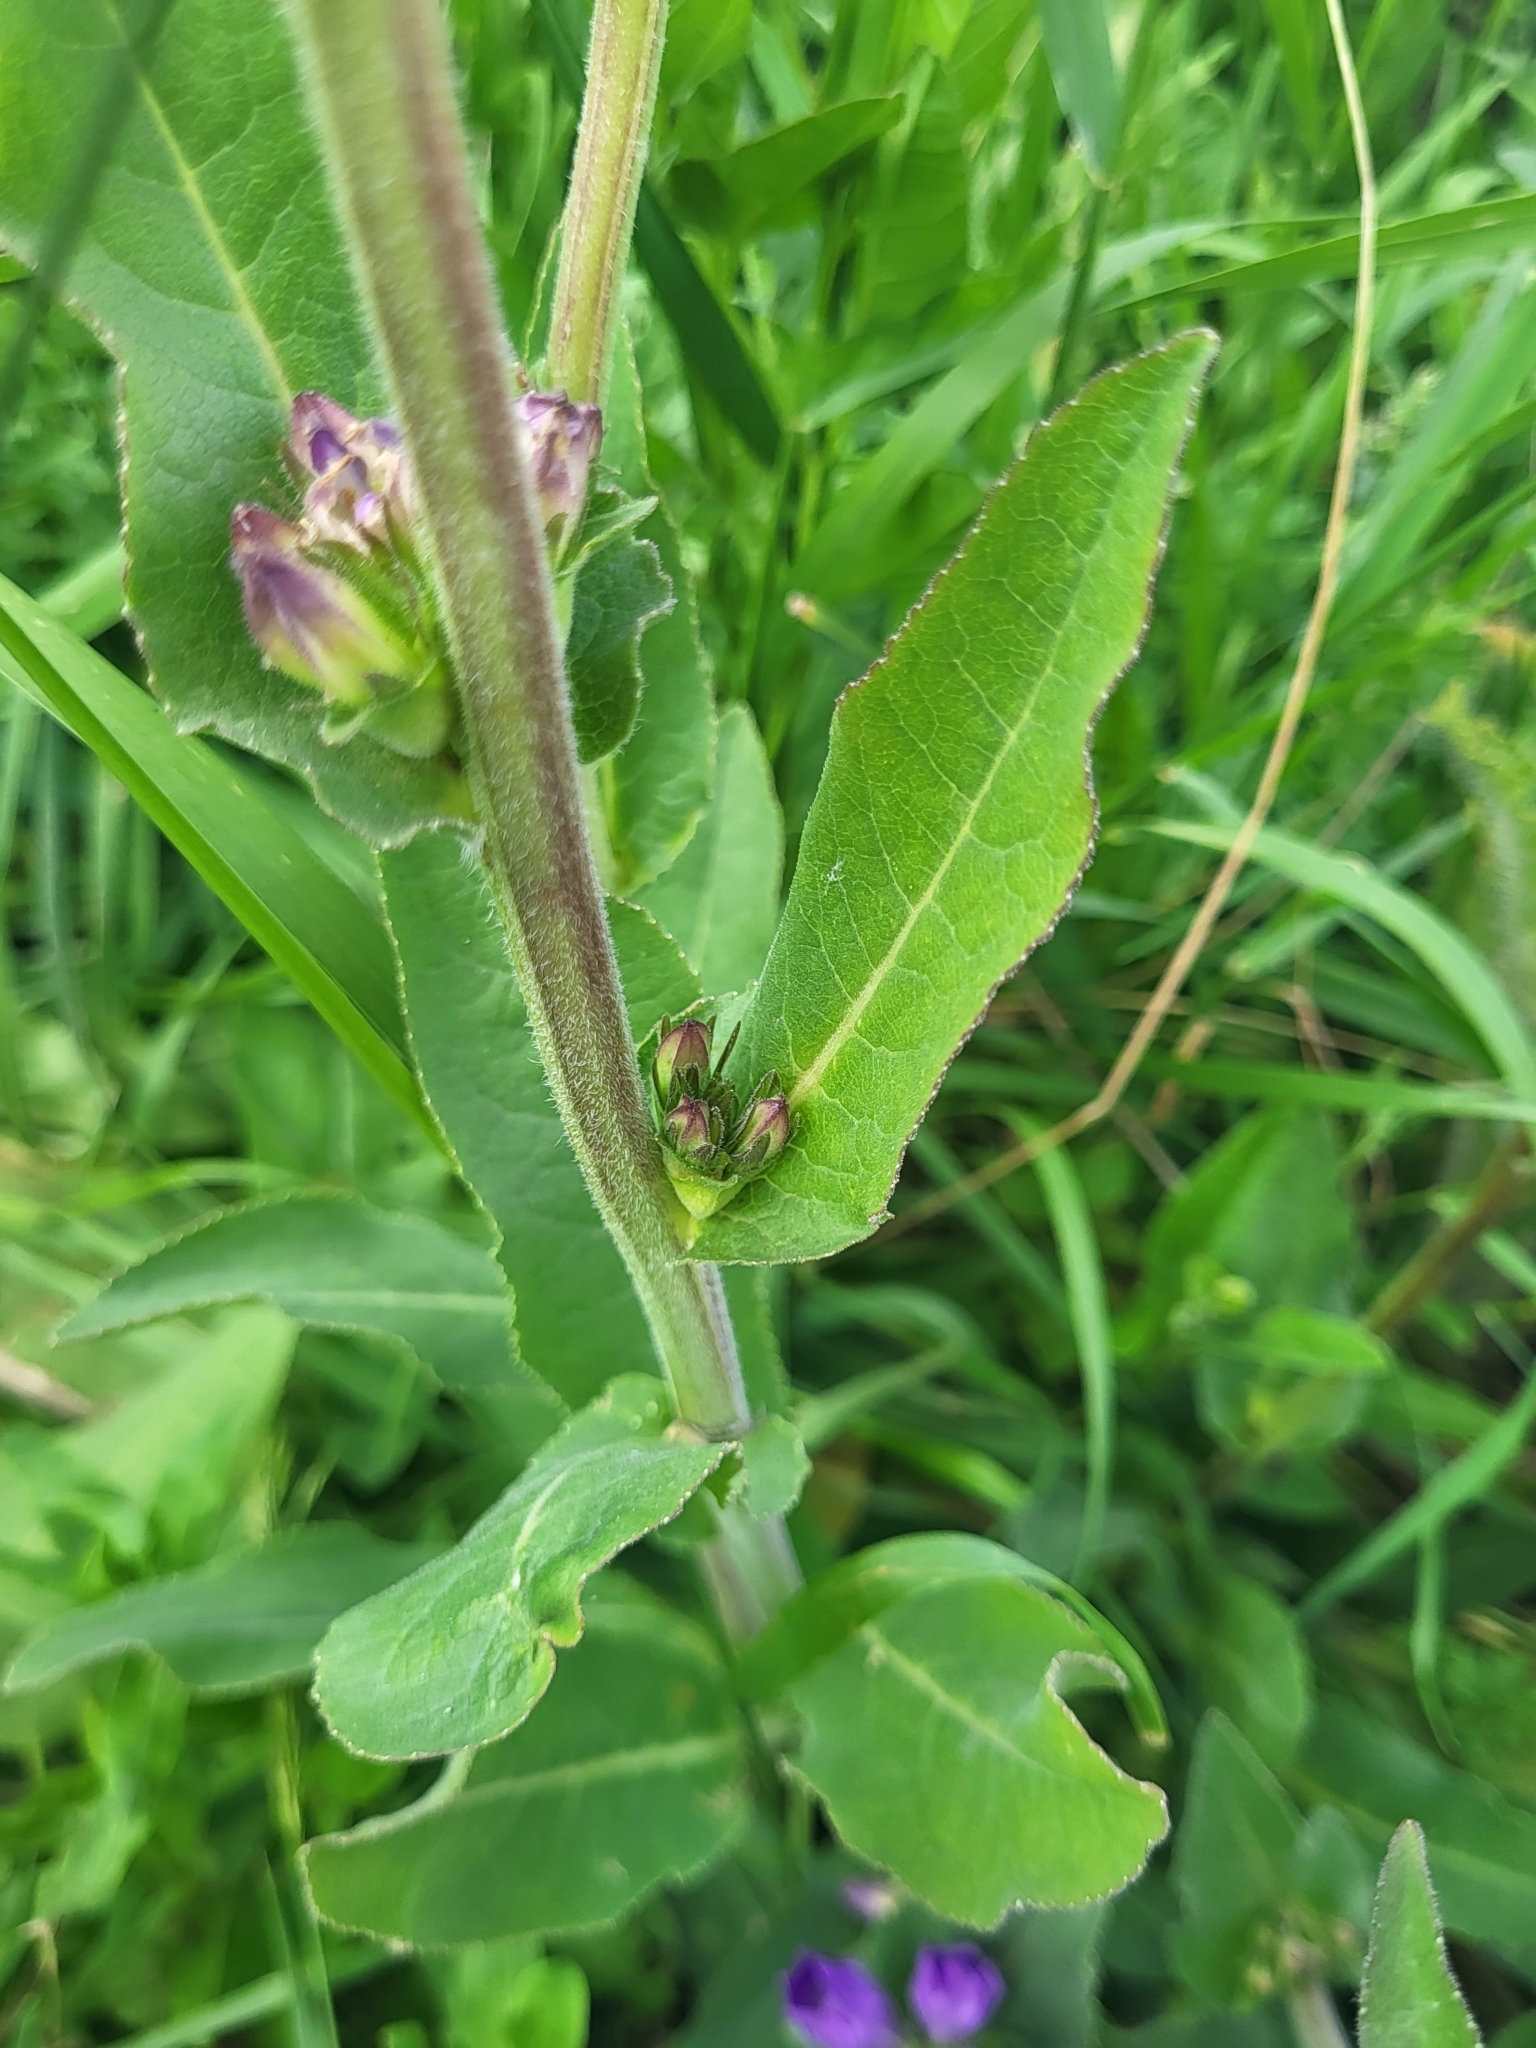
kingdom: Plantae
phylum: Tracheophyta
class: Magnoliopsida
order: Asterales
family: Campanulaceae
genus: Campanula
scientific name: Campanula glomerata
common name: Clustered bellflower
